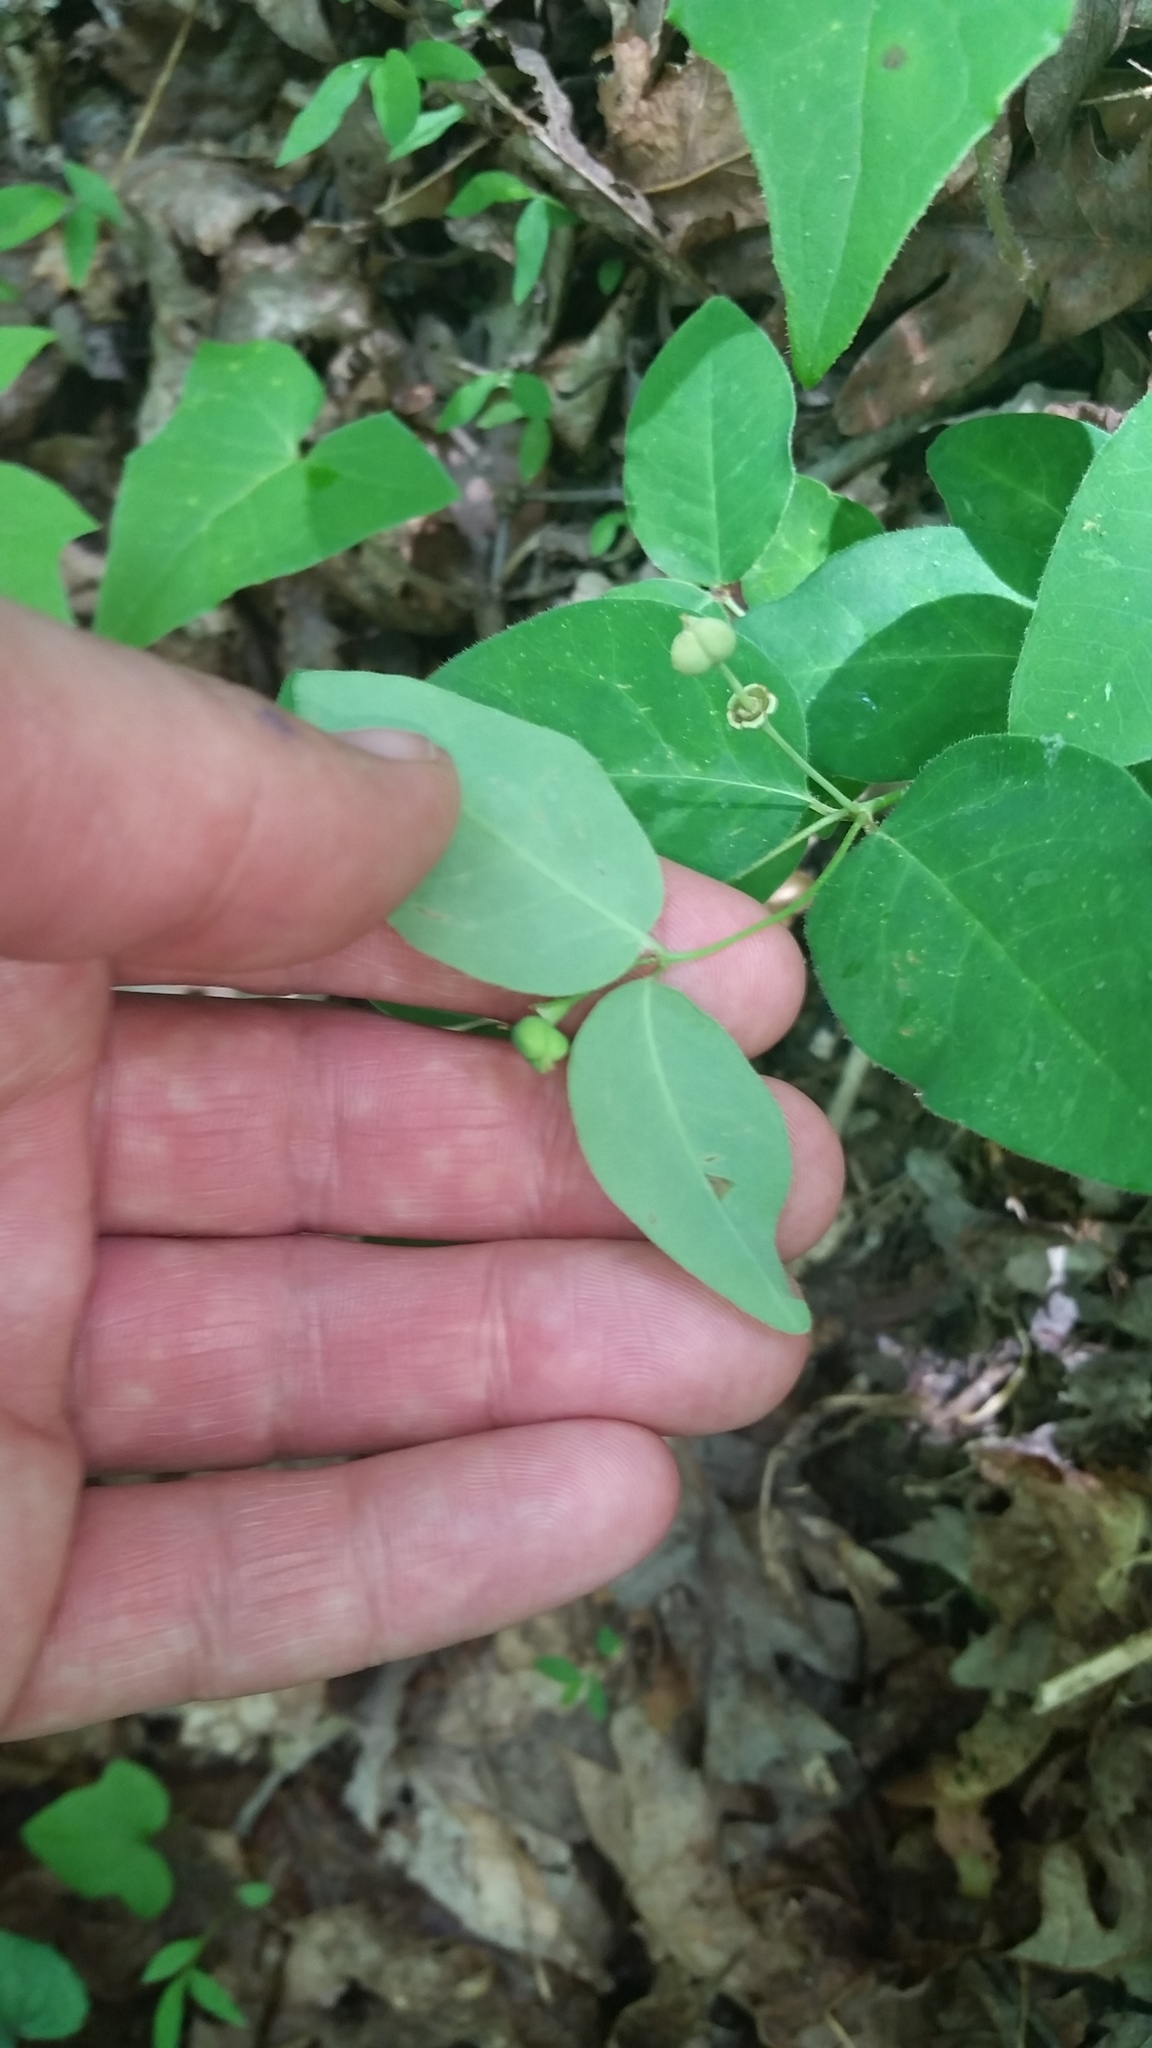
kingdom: Plantae
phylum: Tracheophyta
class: Magnoliopsida
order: Malpighiales
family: Euphorbiaceae
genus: Euphorbia
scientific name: Euphorbia mercurialina
